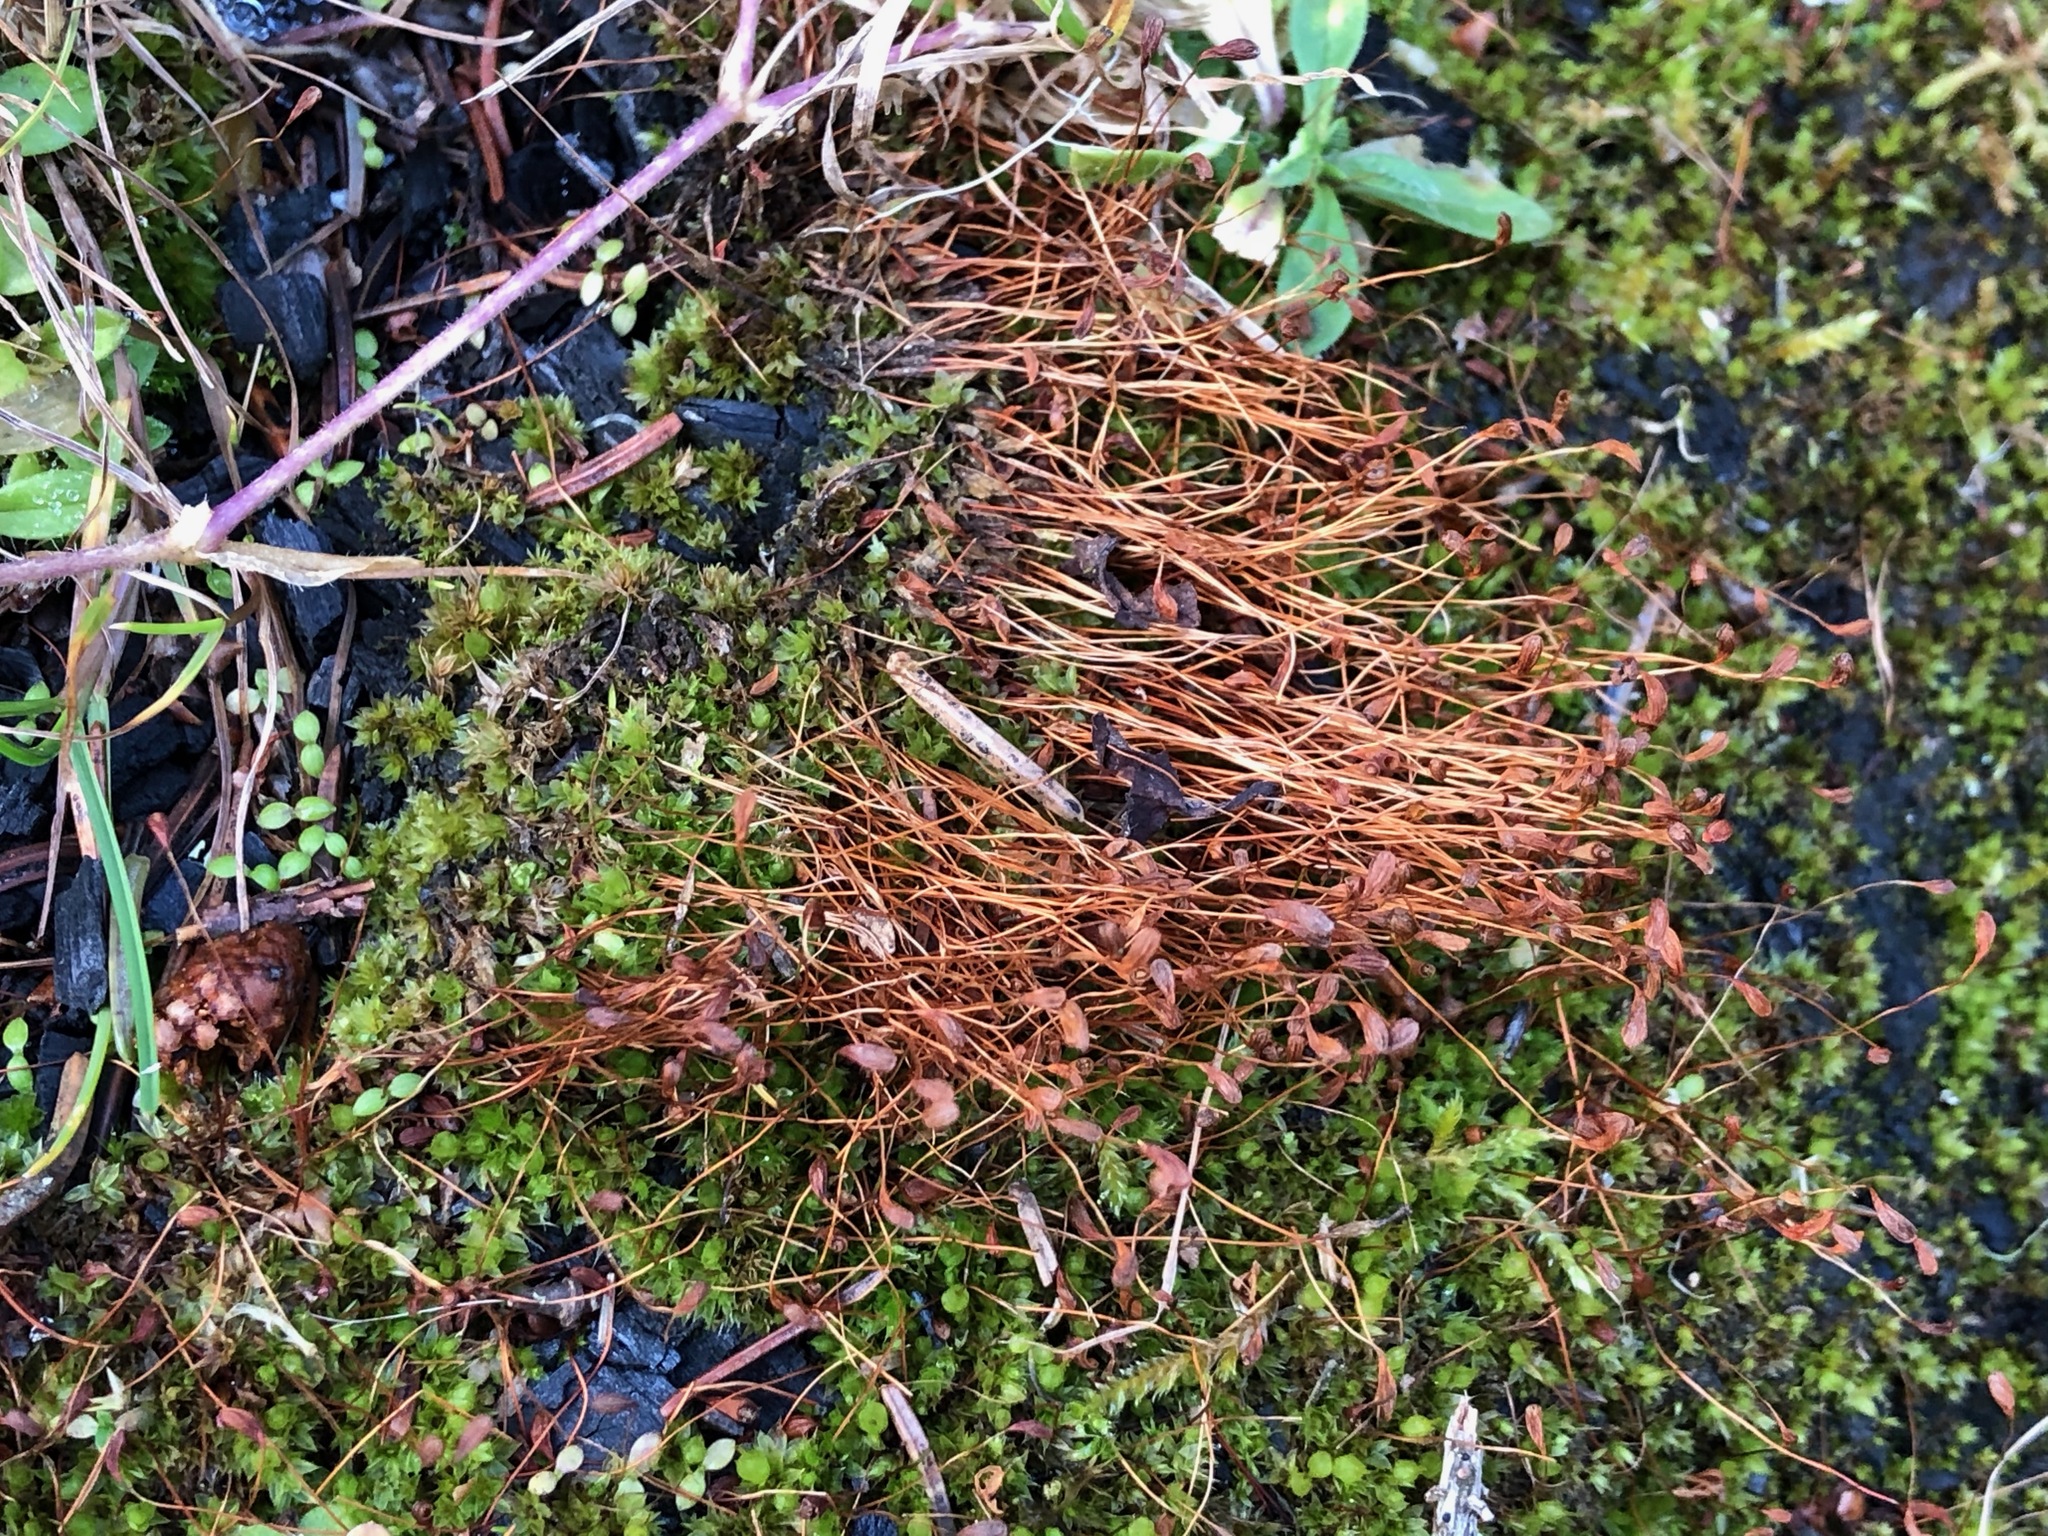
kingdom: Plantae
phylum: Bryophyta
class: Bryopsida
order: Funariales
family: Funariaceae
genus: Funaria
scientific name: Funaria hygrometrica
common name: Common cord moss
